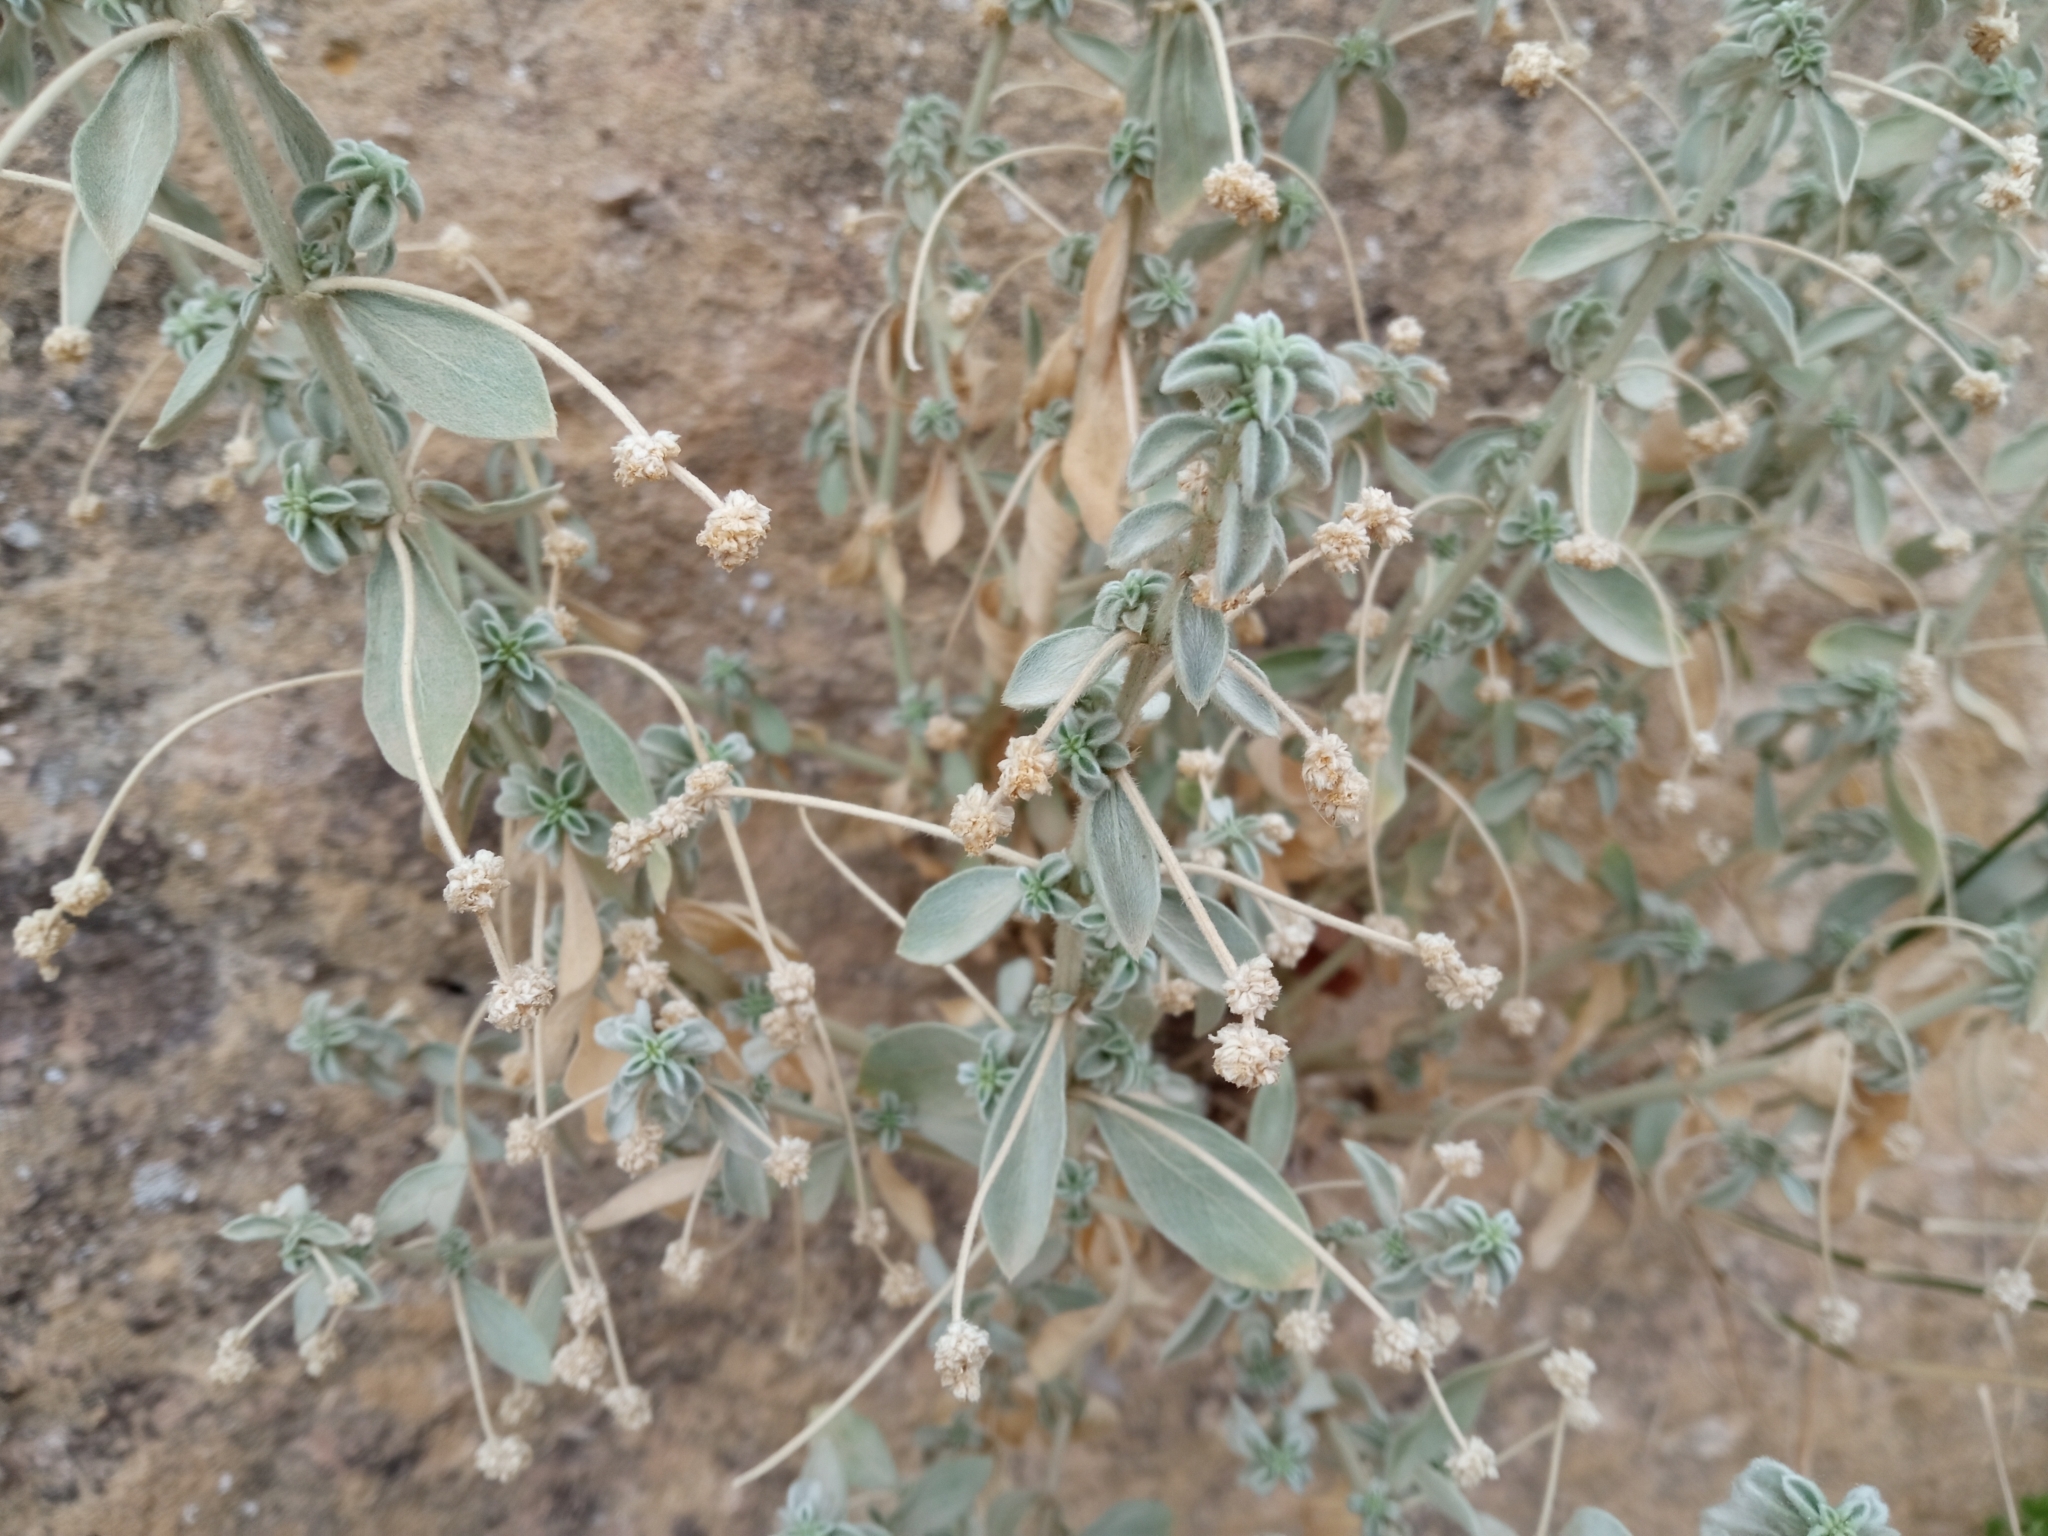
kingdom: Plantae
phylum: Tracheophyta
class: Magnoliopsida
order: Malpighiales
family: Euphorbiaceae
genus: Mercurialis
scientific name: Mercurialis tomentosa
